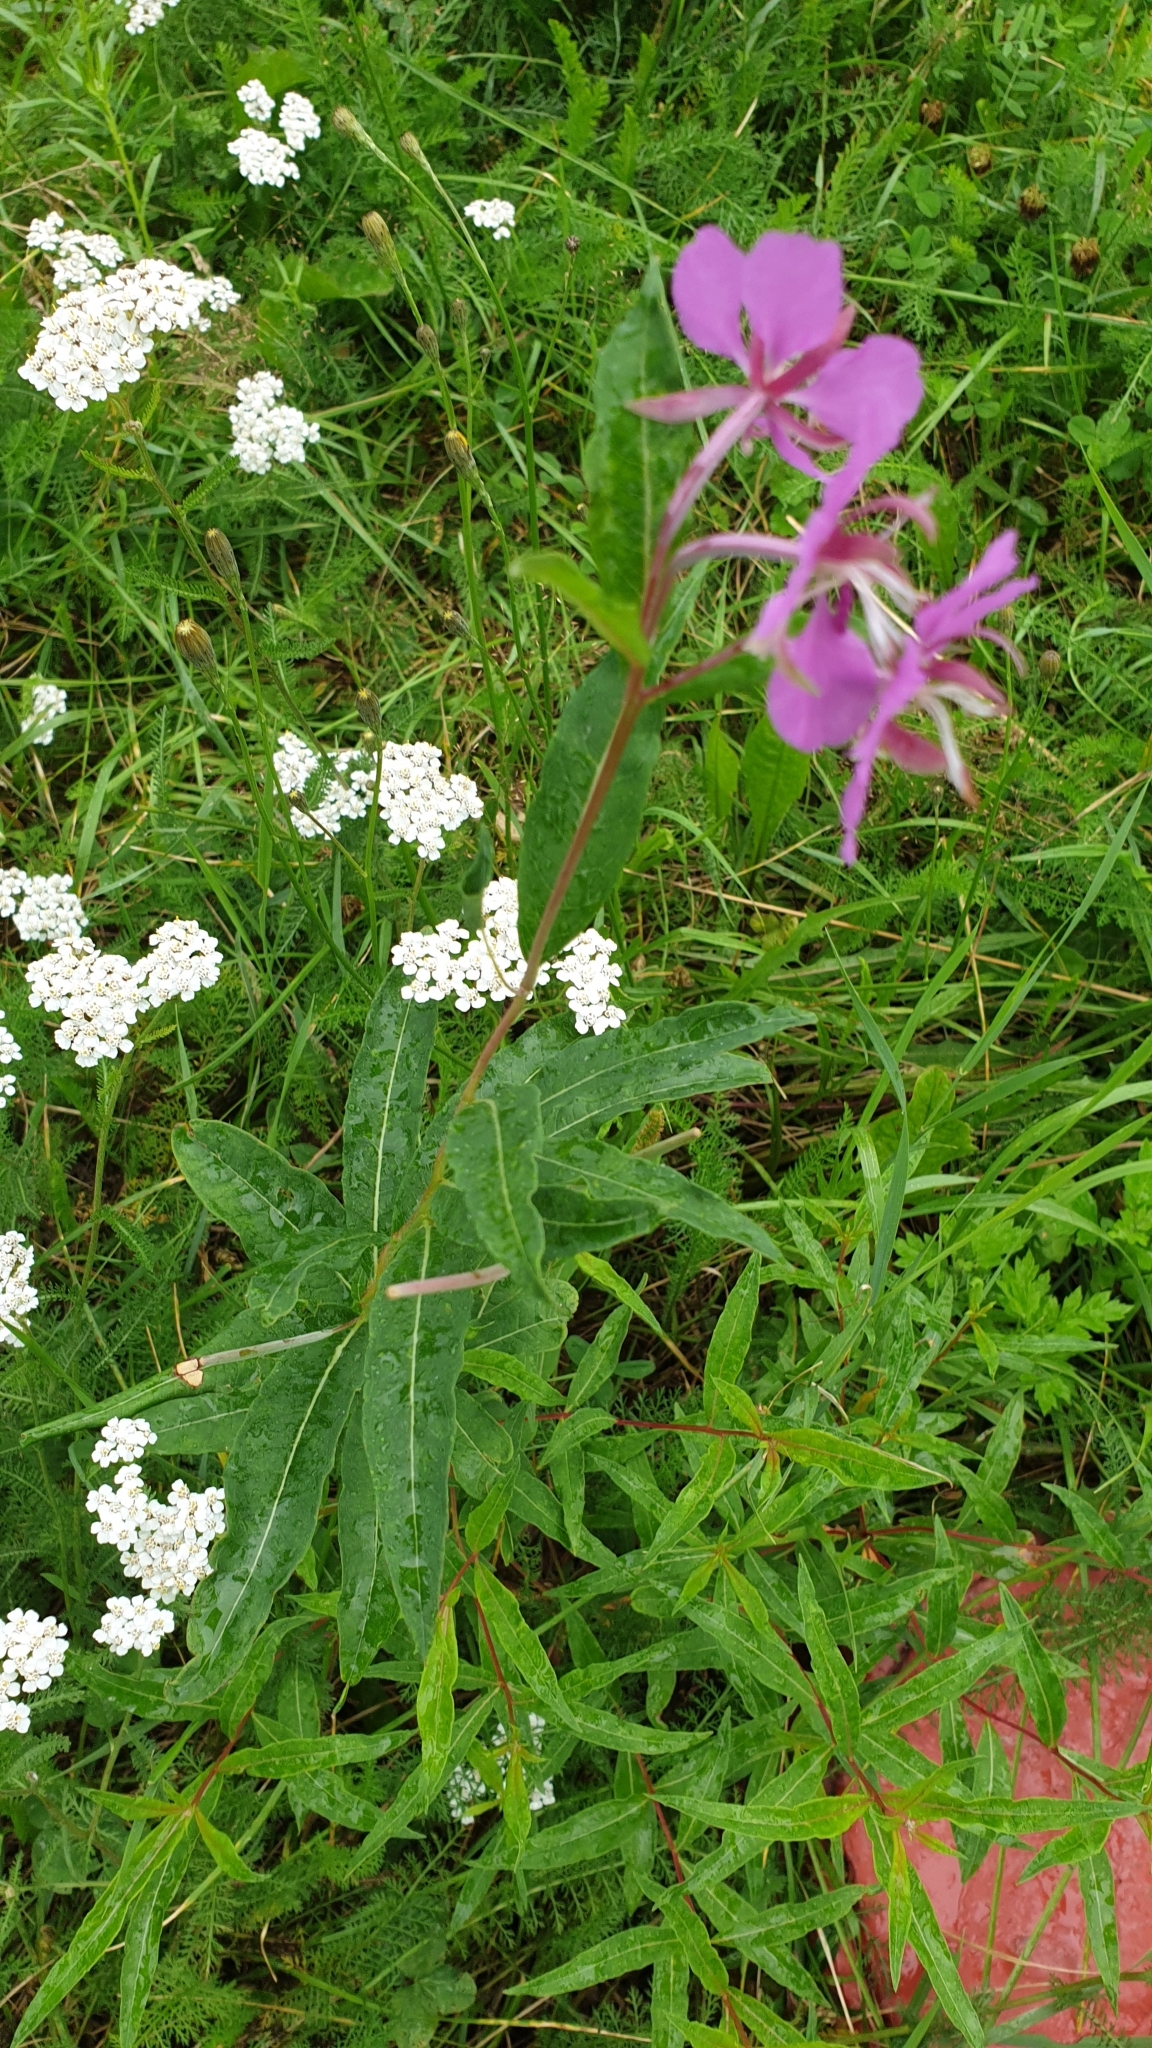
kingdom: Plantae
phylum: Tracheophyta
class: Magnoliopsida
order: Myrtales
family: Onagraceae
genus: Chamaenerion
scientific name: Chamaenerion angustifolium
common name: Fireweed
